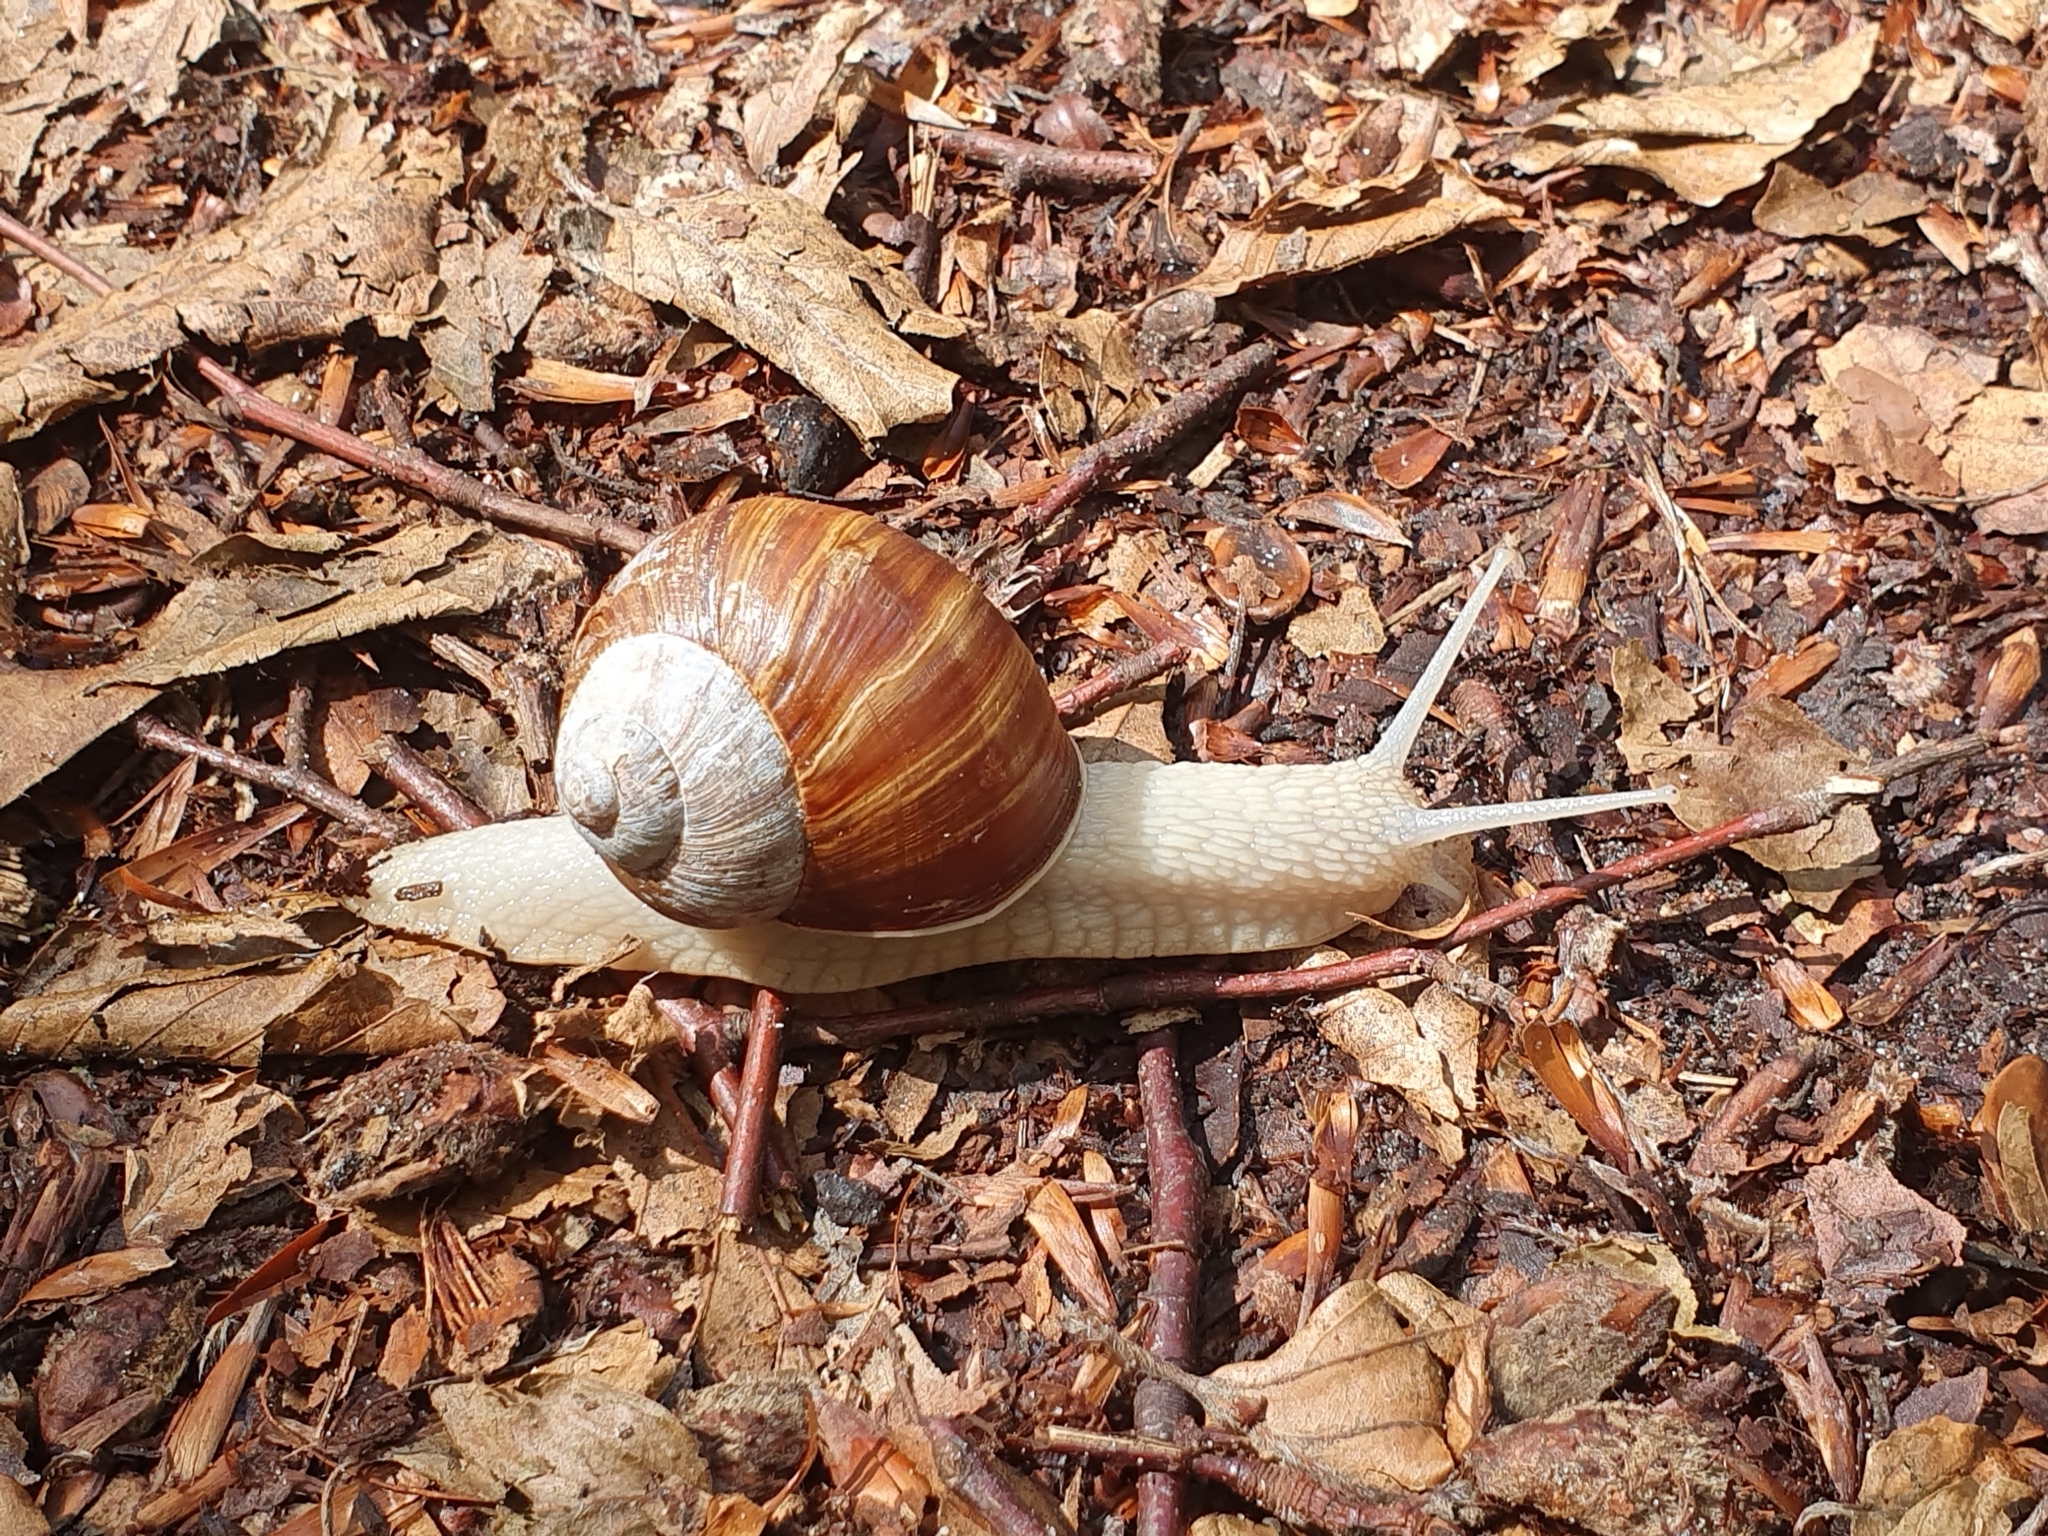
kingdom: Animalia
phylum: Mollusca
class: Gastropoda
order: Stylommatophora
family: Helicidae
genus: Helix
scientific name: Helix pomatia
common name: Roman snail
